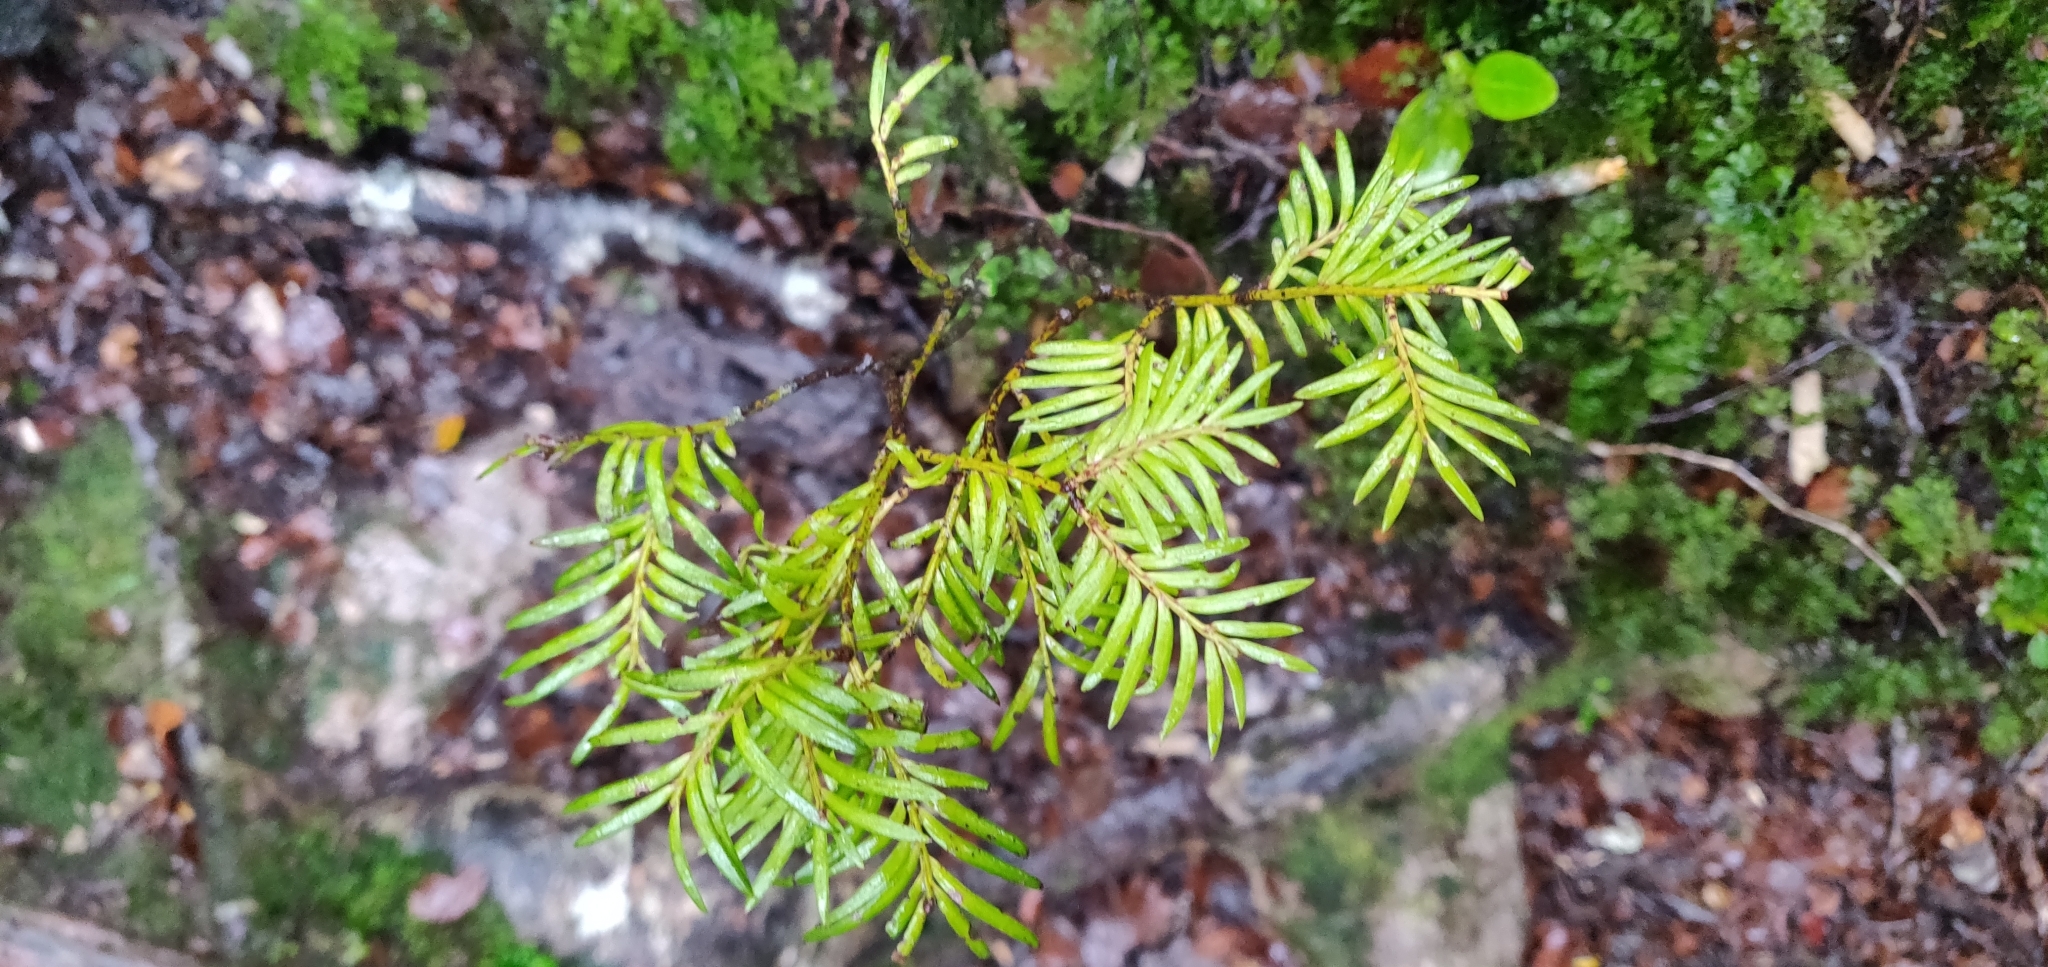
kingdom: Plantae
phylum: Tracheophyta
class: Pinopsida
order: Pinales
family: Podocarpaceae
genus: Prumnopitys
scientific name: Prumnopitys ferruginea
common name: Brown pine
